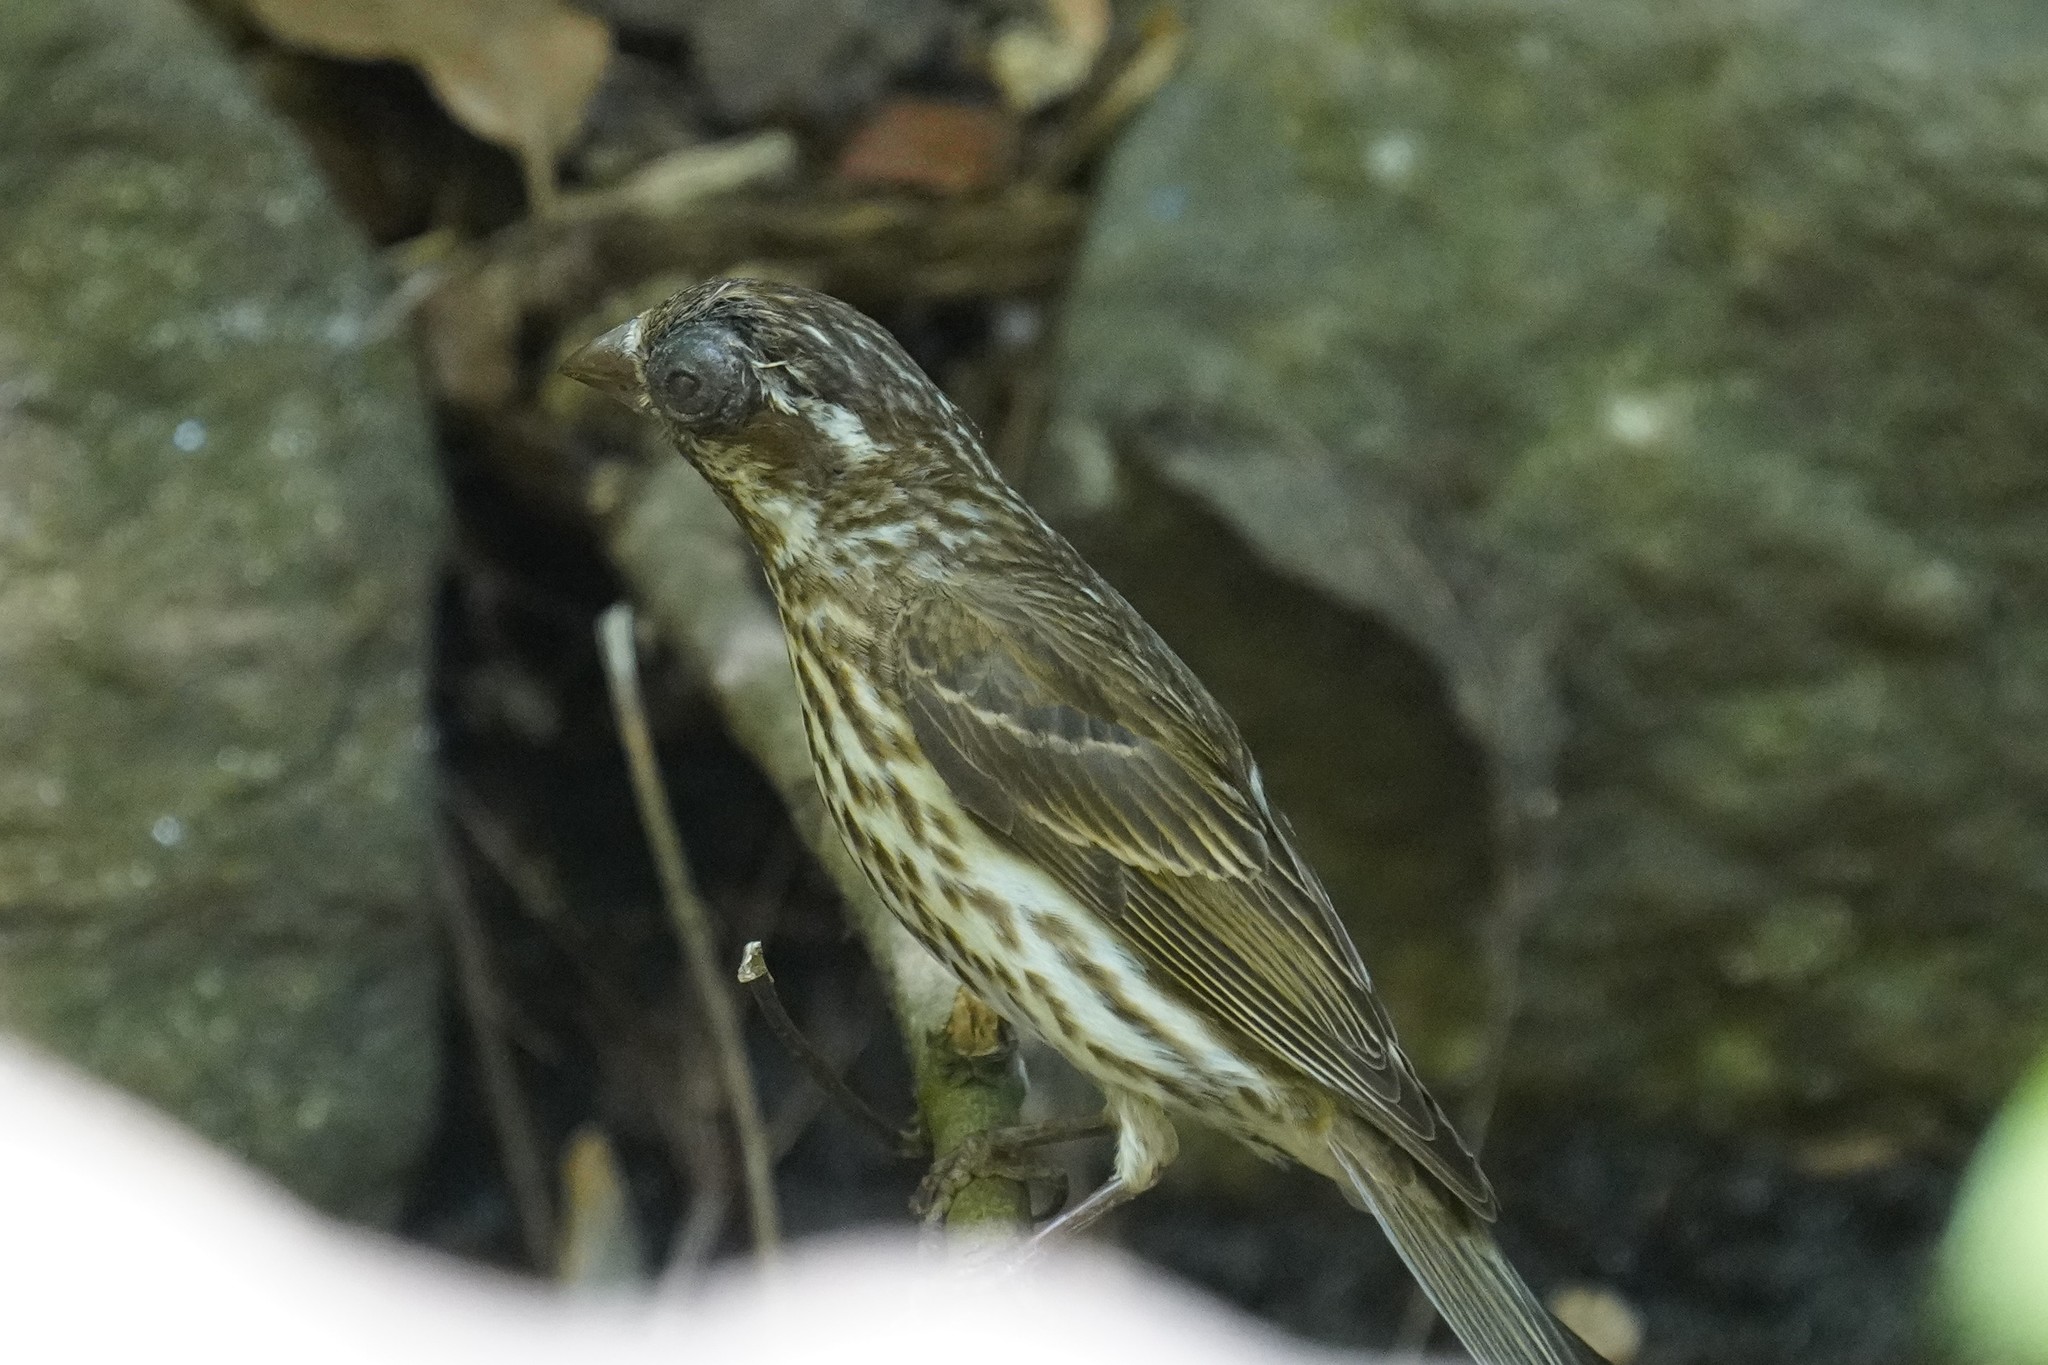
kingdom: Animalia
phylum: Chordata
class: Aves
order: Passeriformes
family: Fringillidae
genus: Haemorhous
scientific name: Haemorhous purpureus
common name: Purple finch
